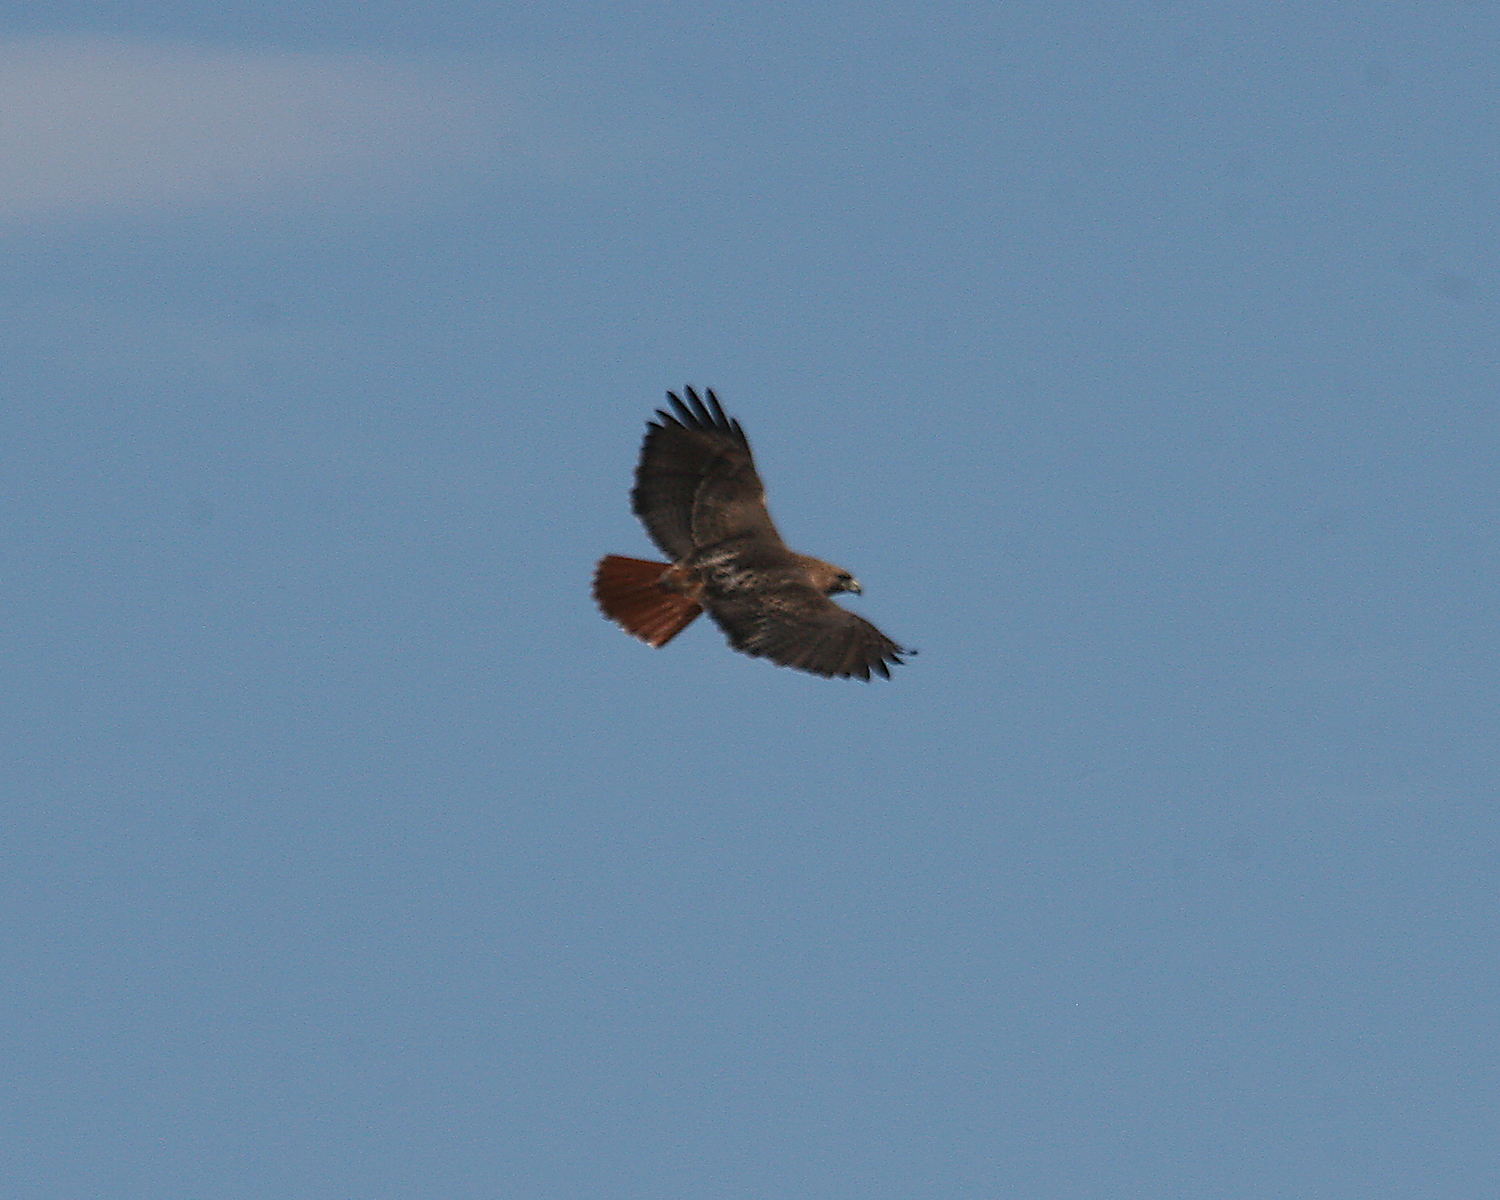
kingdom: Animalia
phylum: Chordata
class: Aves
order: Accipitriformes
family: Accipitridae
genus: Buteo
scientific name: Buteo jamaicensis
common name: Red-tailed hawk
